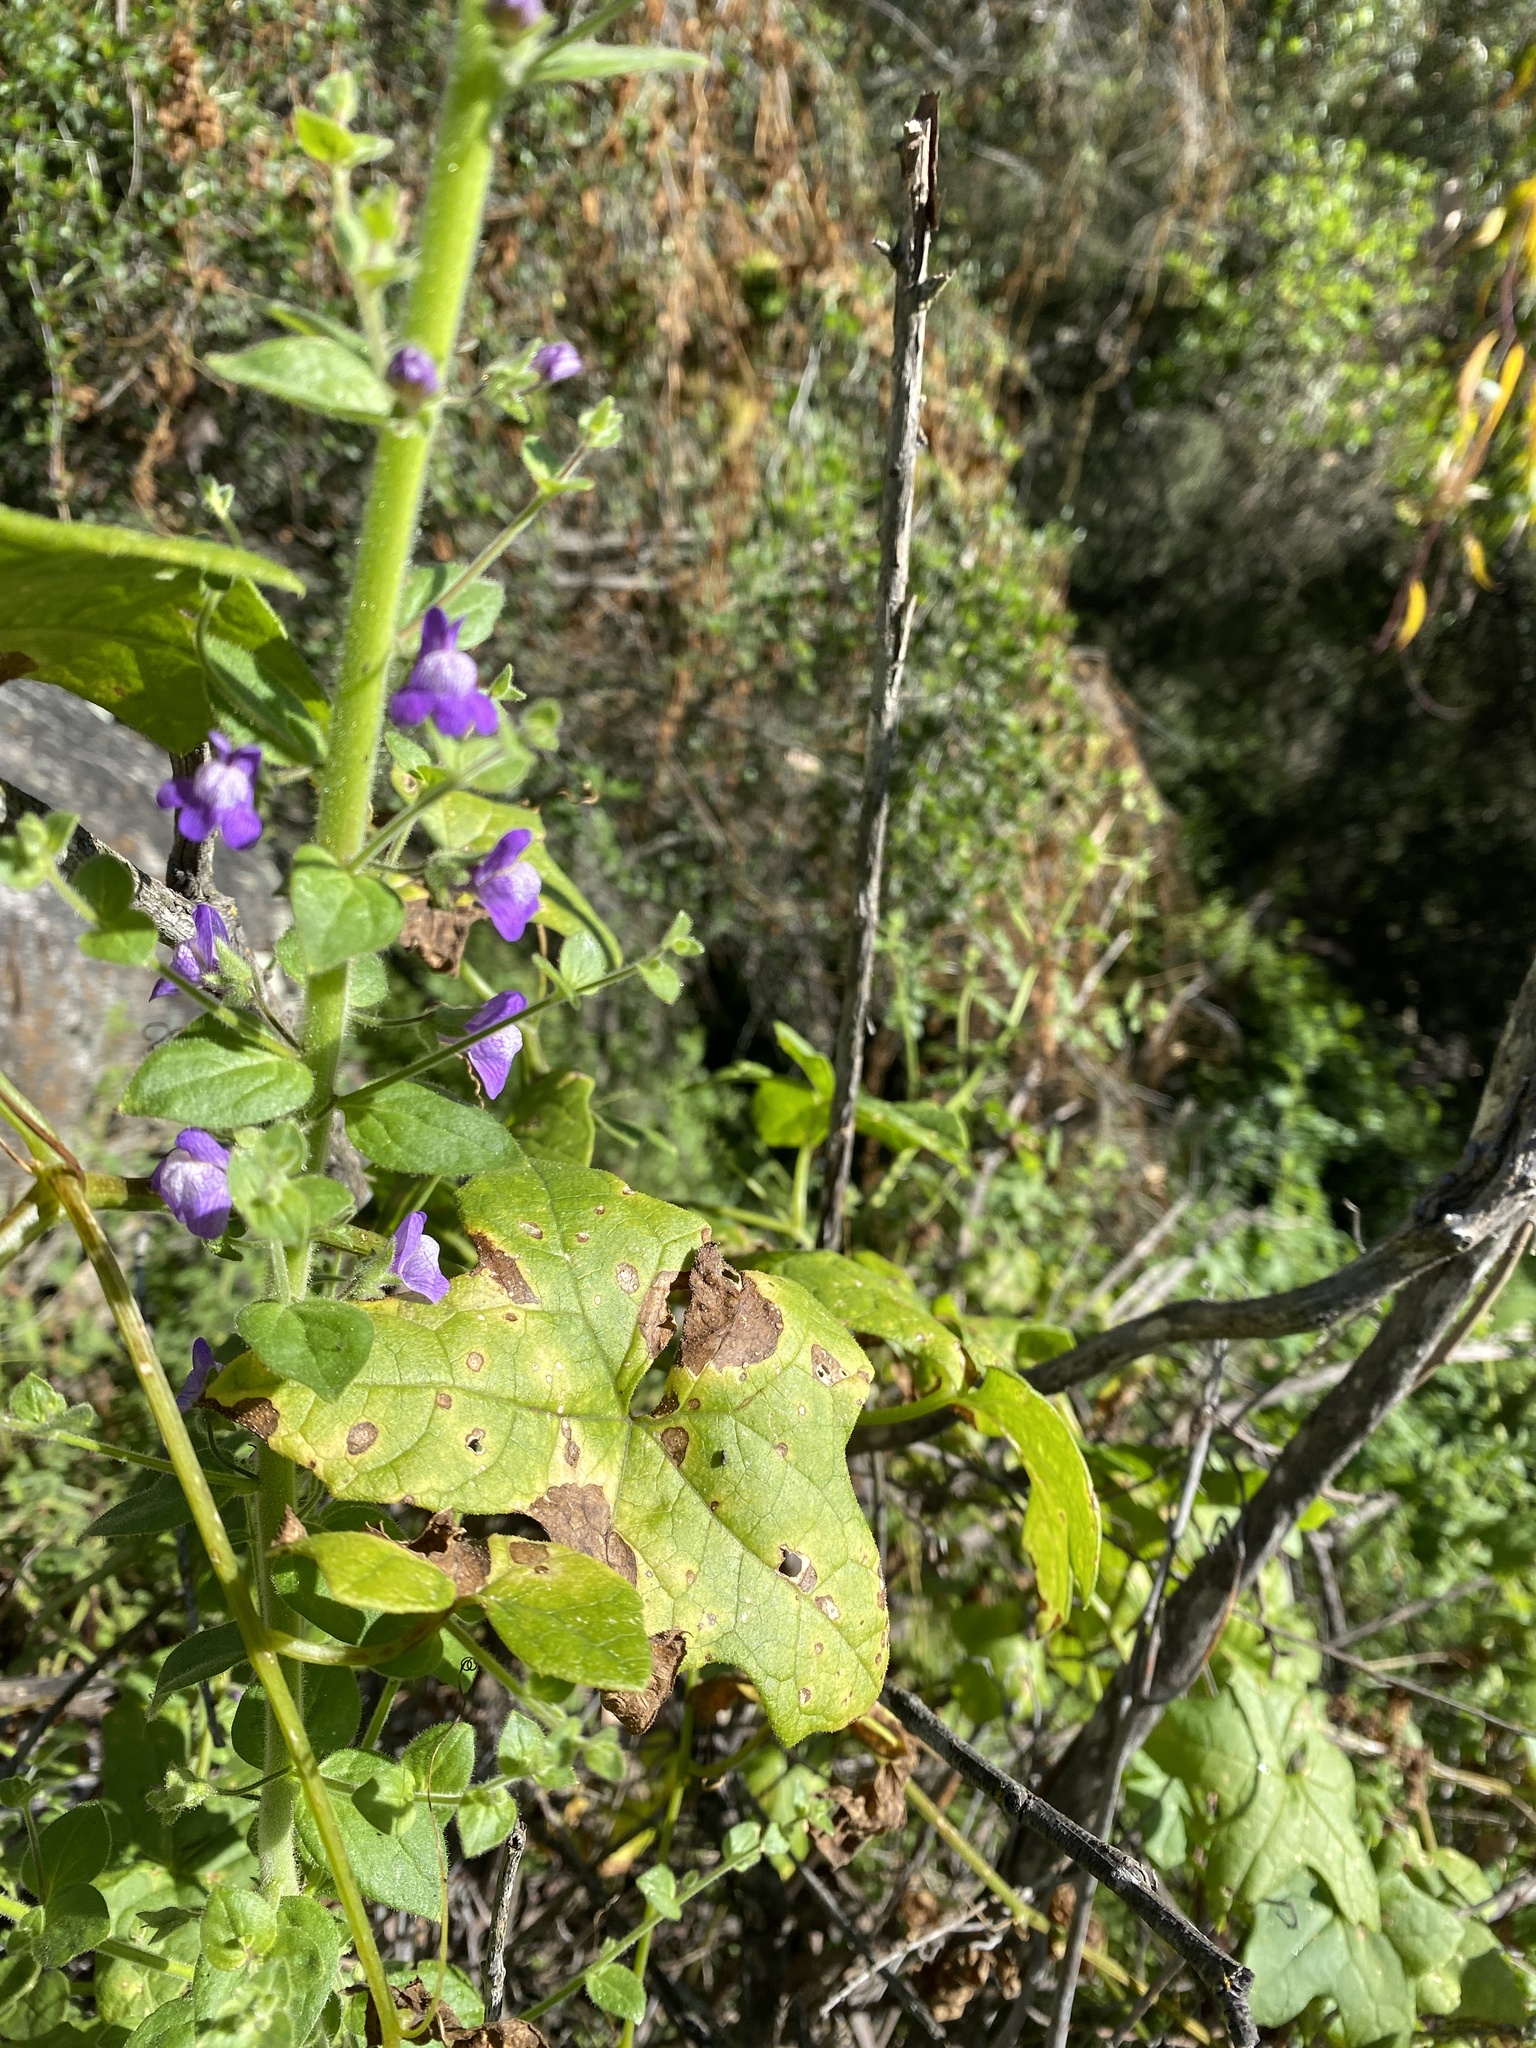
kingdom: Plantae
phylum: Tracheophyta
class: Magnoliopsida
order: Lamiales
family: Plantaginaceae
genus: Sairocarpus
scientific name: Sairocarpus nuttallianus
